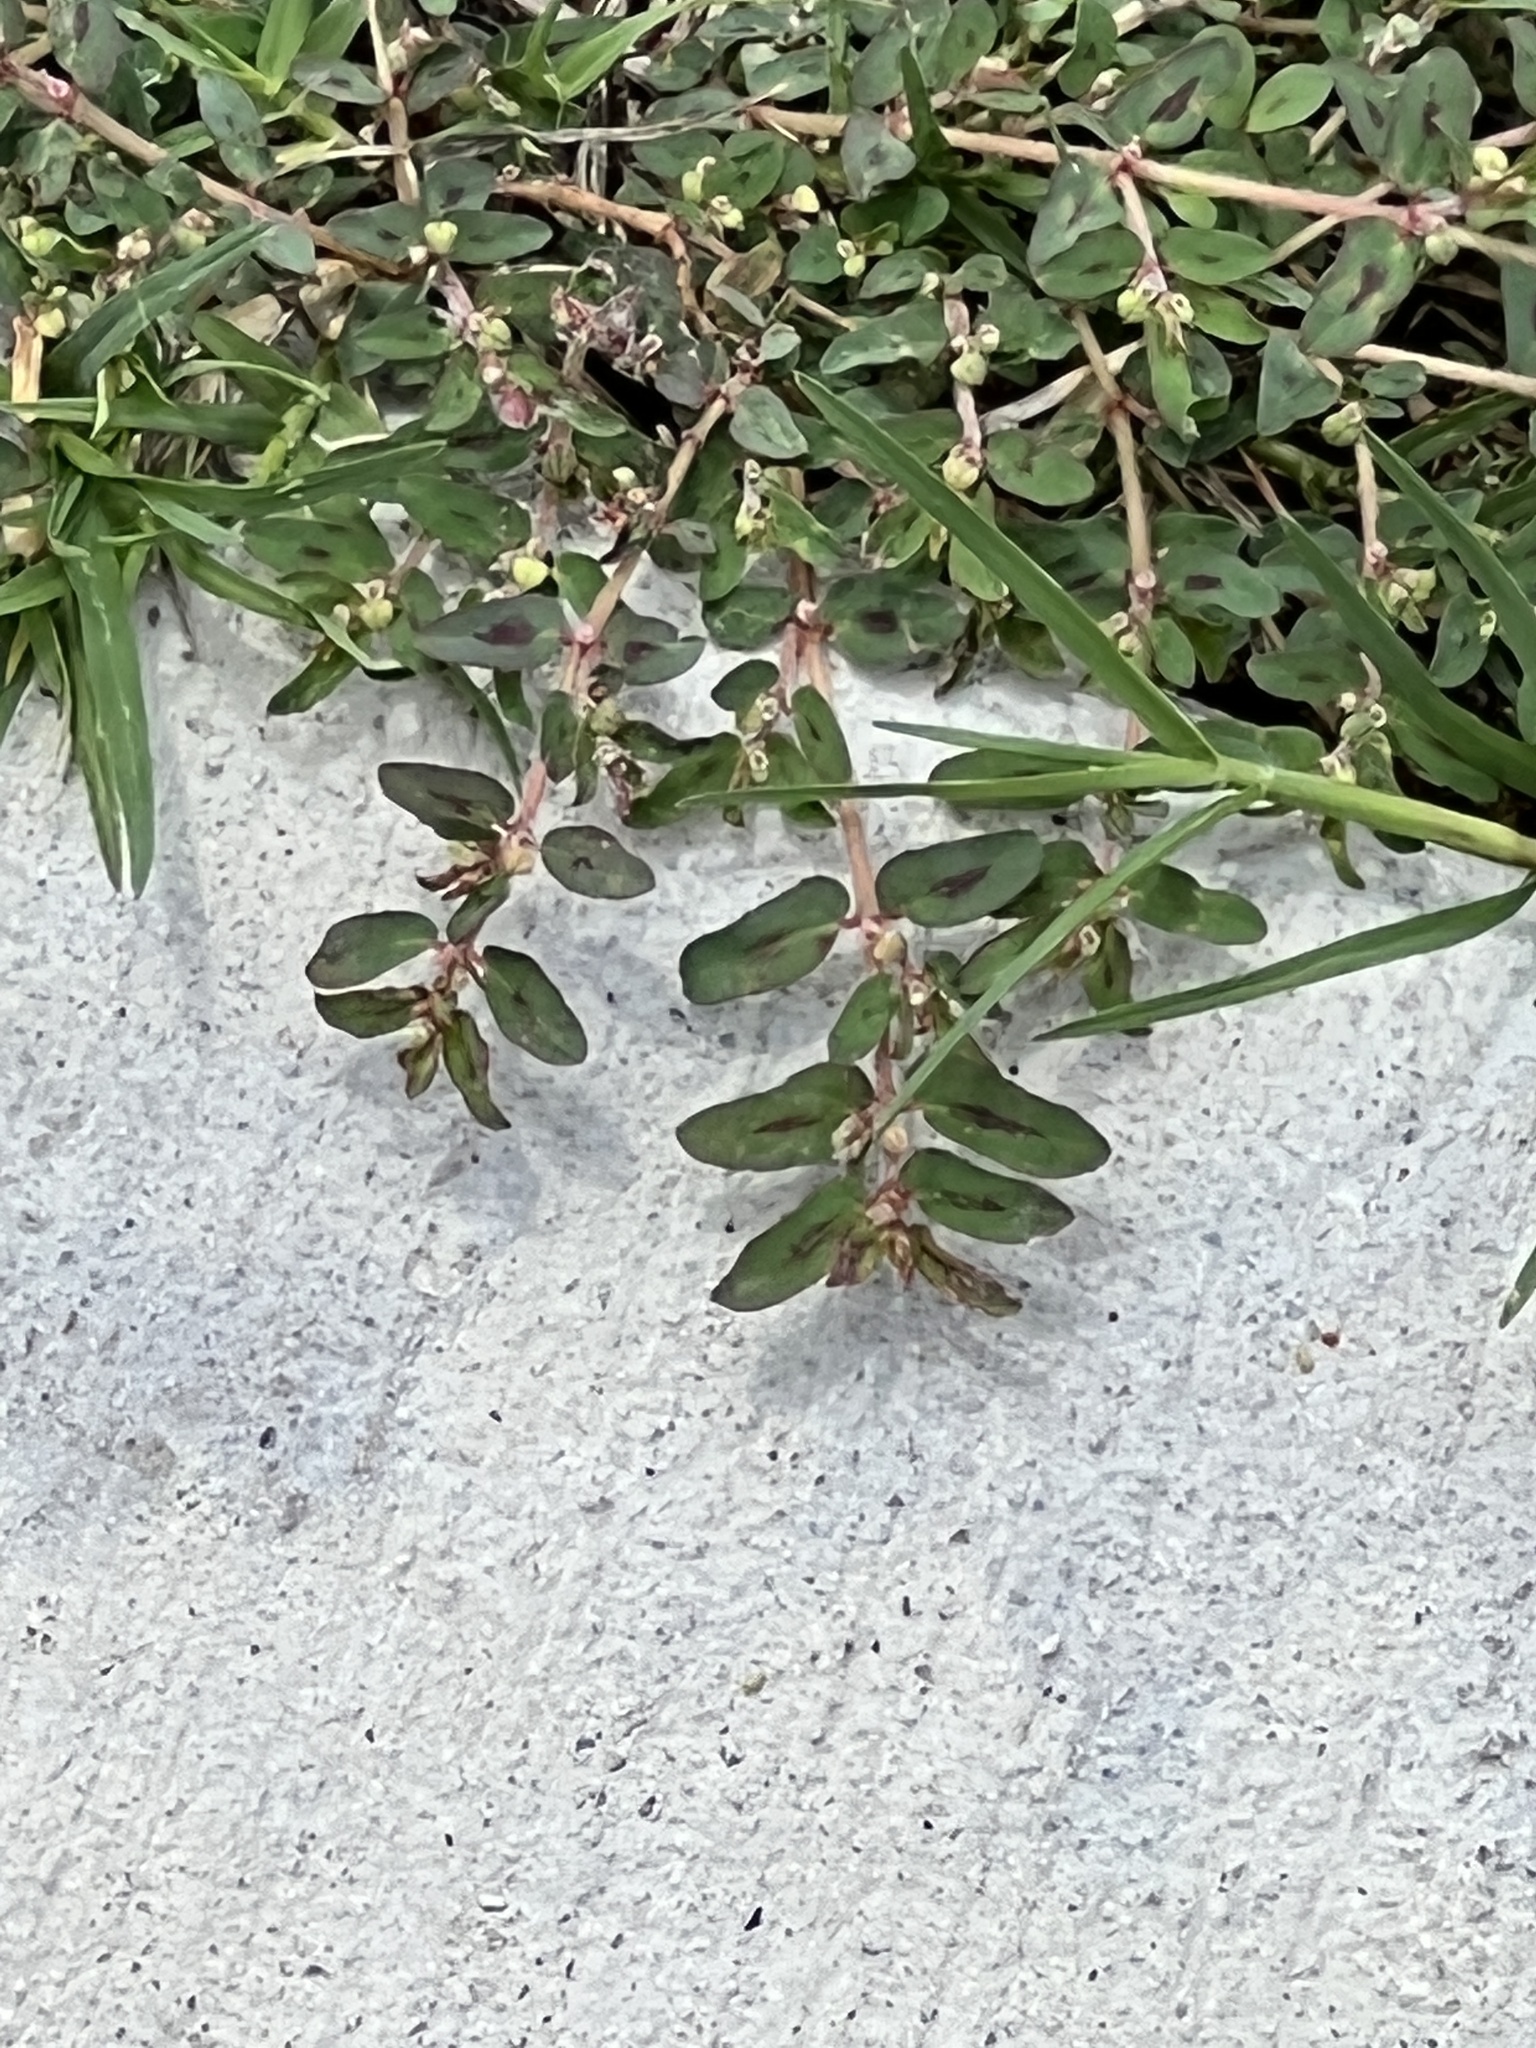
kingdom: Plantae
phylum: Tracheophyta
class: Magnoliopsida
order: Malpighiales
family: Euphorbiaceae
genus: Euphorbia
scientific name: Euphorbia maculata
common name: Spotted spurge
